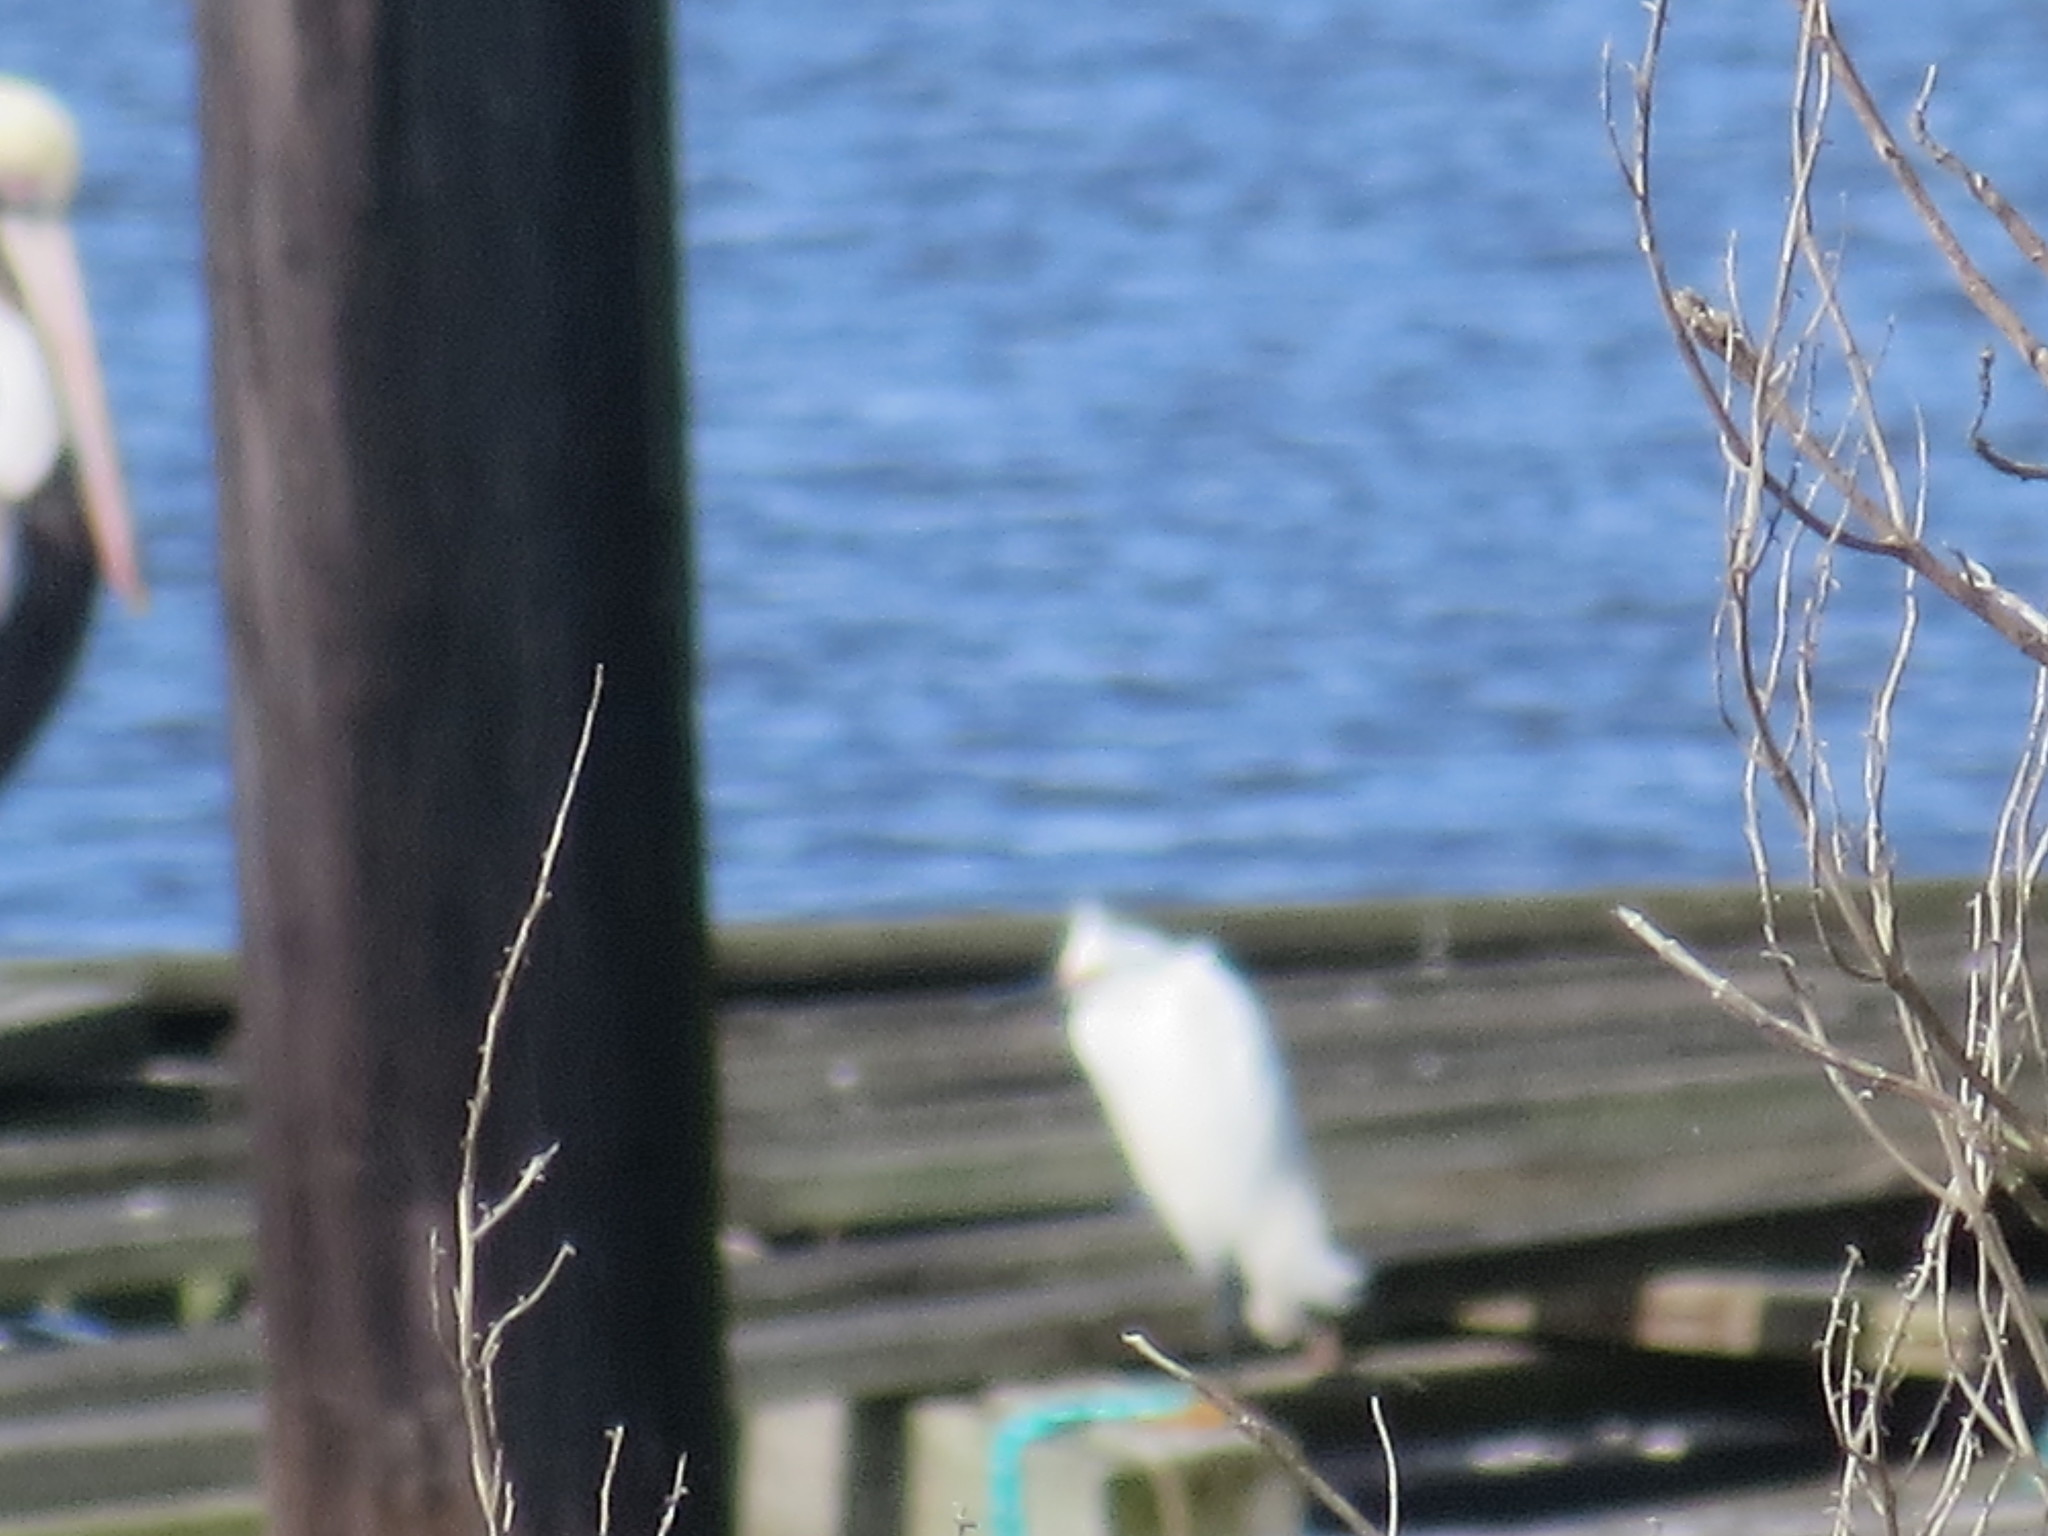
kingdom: Animalia
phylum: Chordata
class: Aves
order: Pelecaniformes
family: Ardeidae
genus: Egretta
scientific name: Egretta thula
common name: Snowy egret
